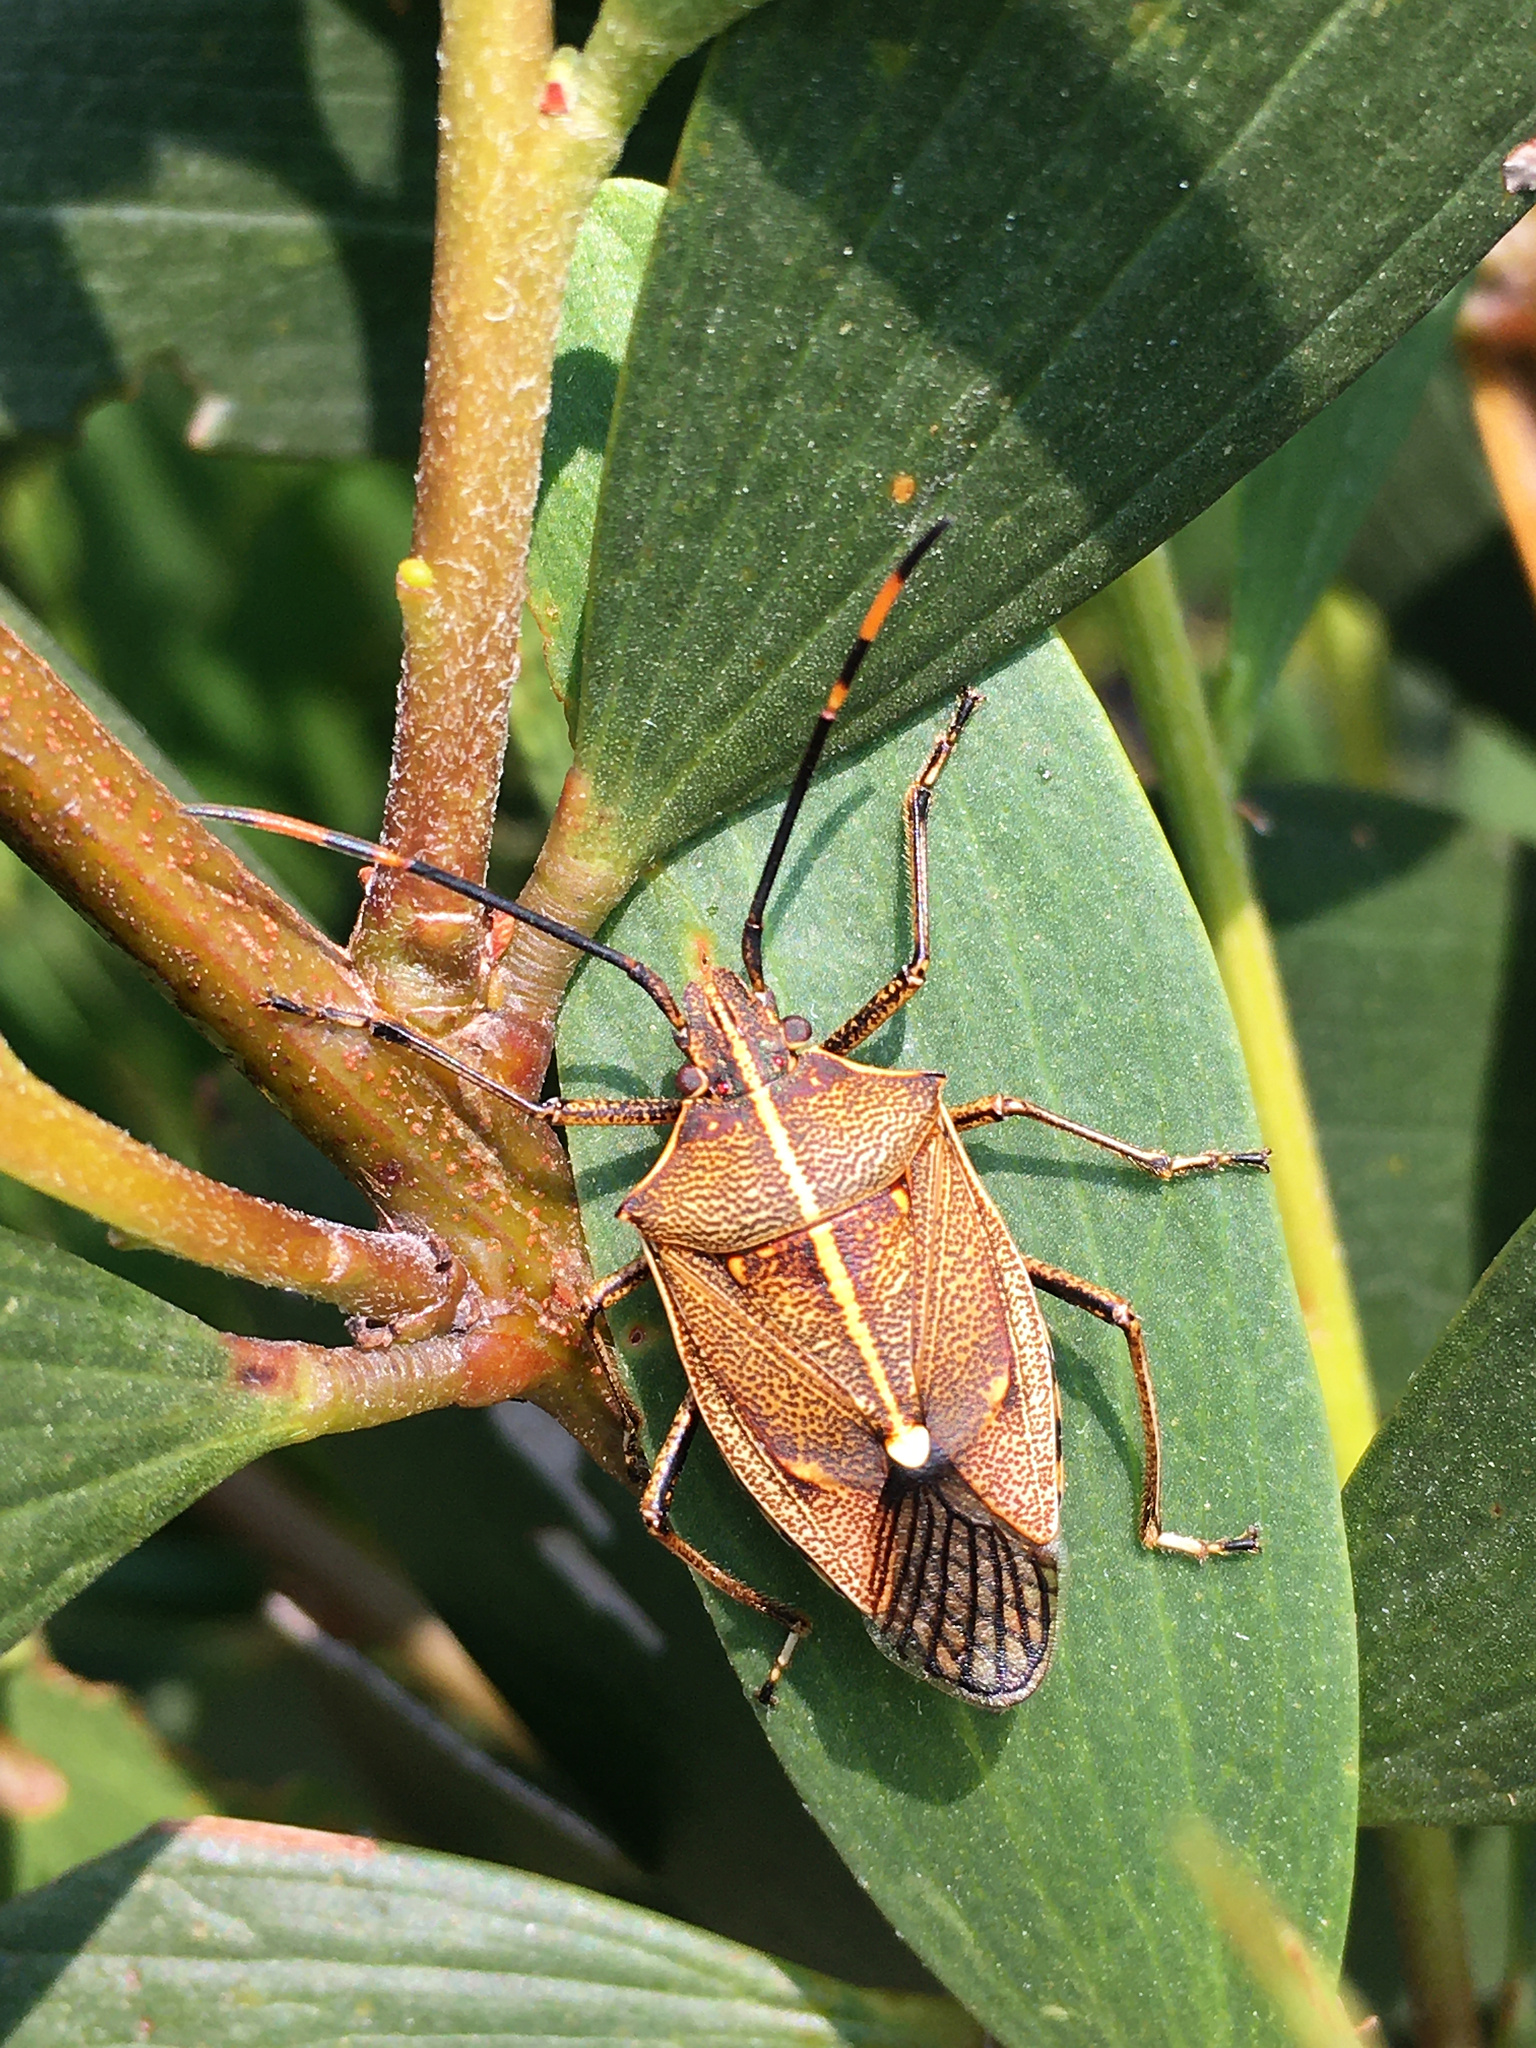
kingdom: Animalia
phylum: Arthropoda
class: Insecta
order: Hemiptera
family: Pentatomidae
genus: Omyta
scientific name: Omyta centrolineata
